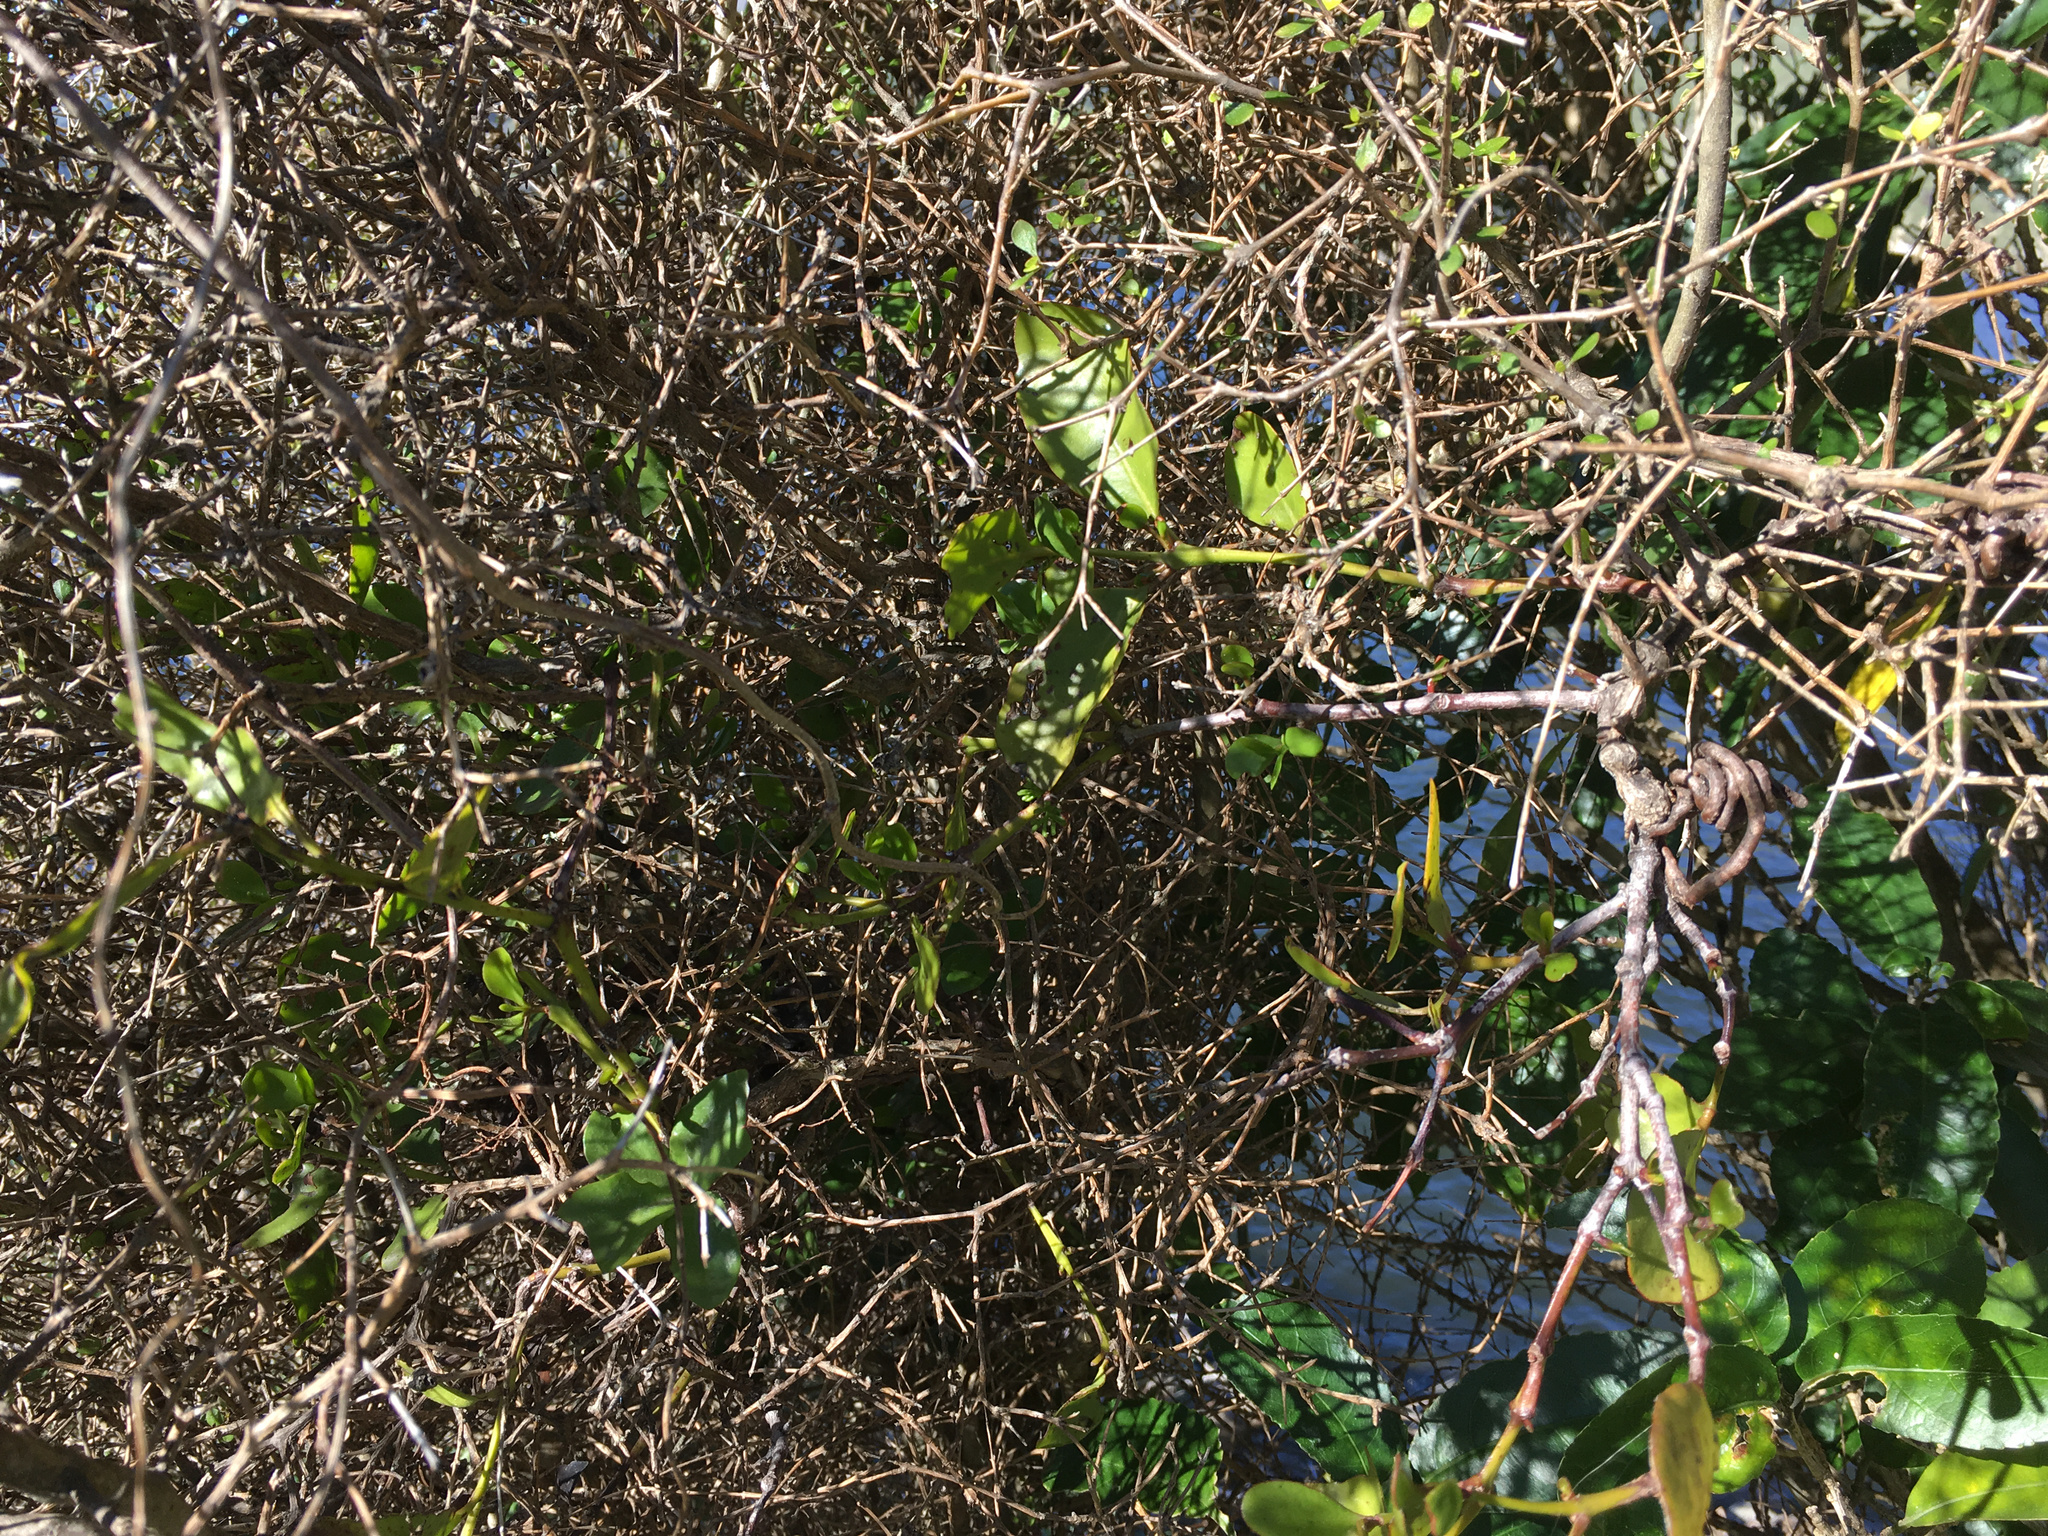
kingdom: Plantae
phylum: Tracheophyta
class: Magnoliopsida
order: Santalales
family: Loranthaceae
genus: Ileostylus
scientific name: Ileostylus micranthus
